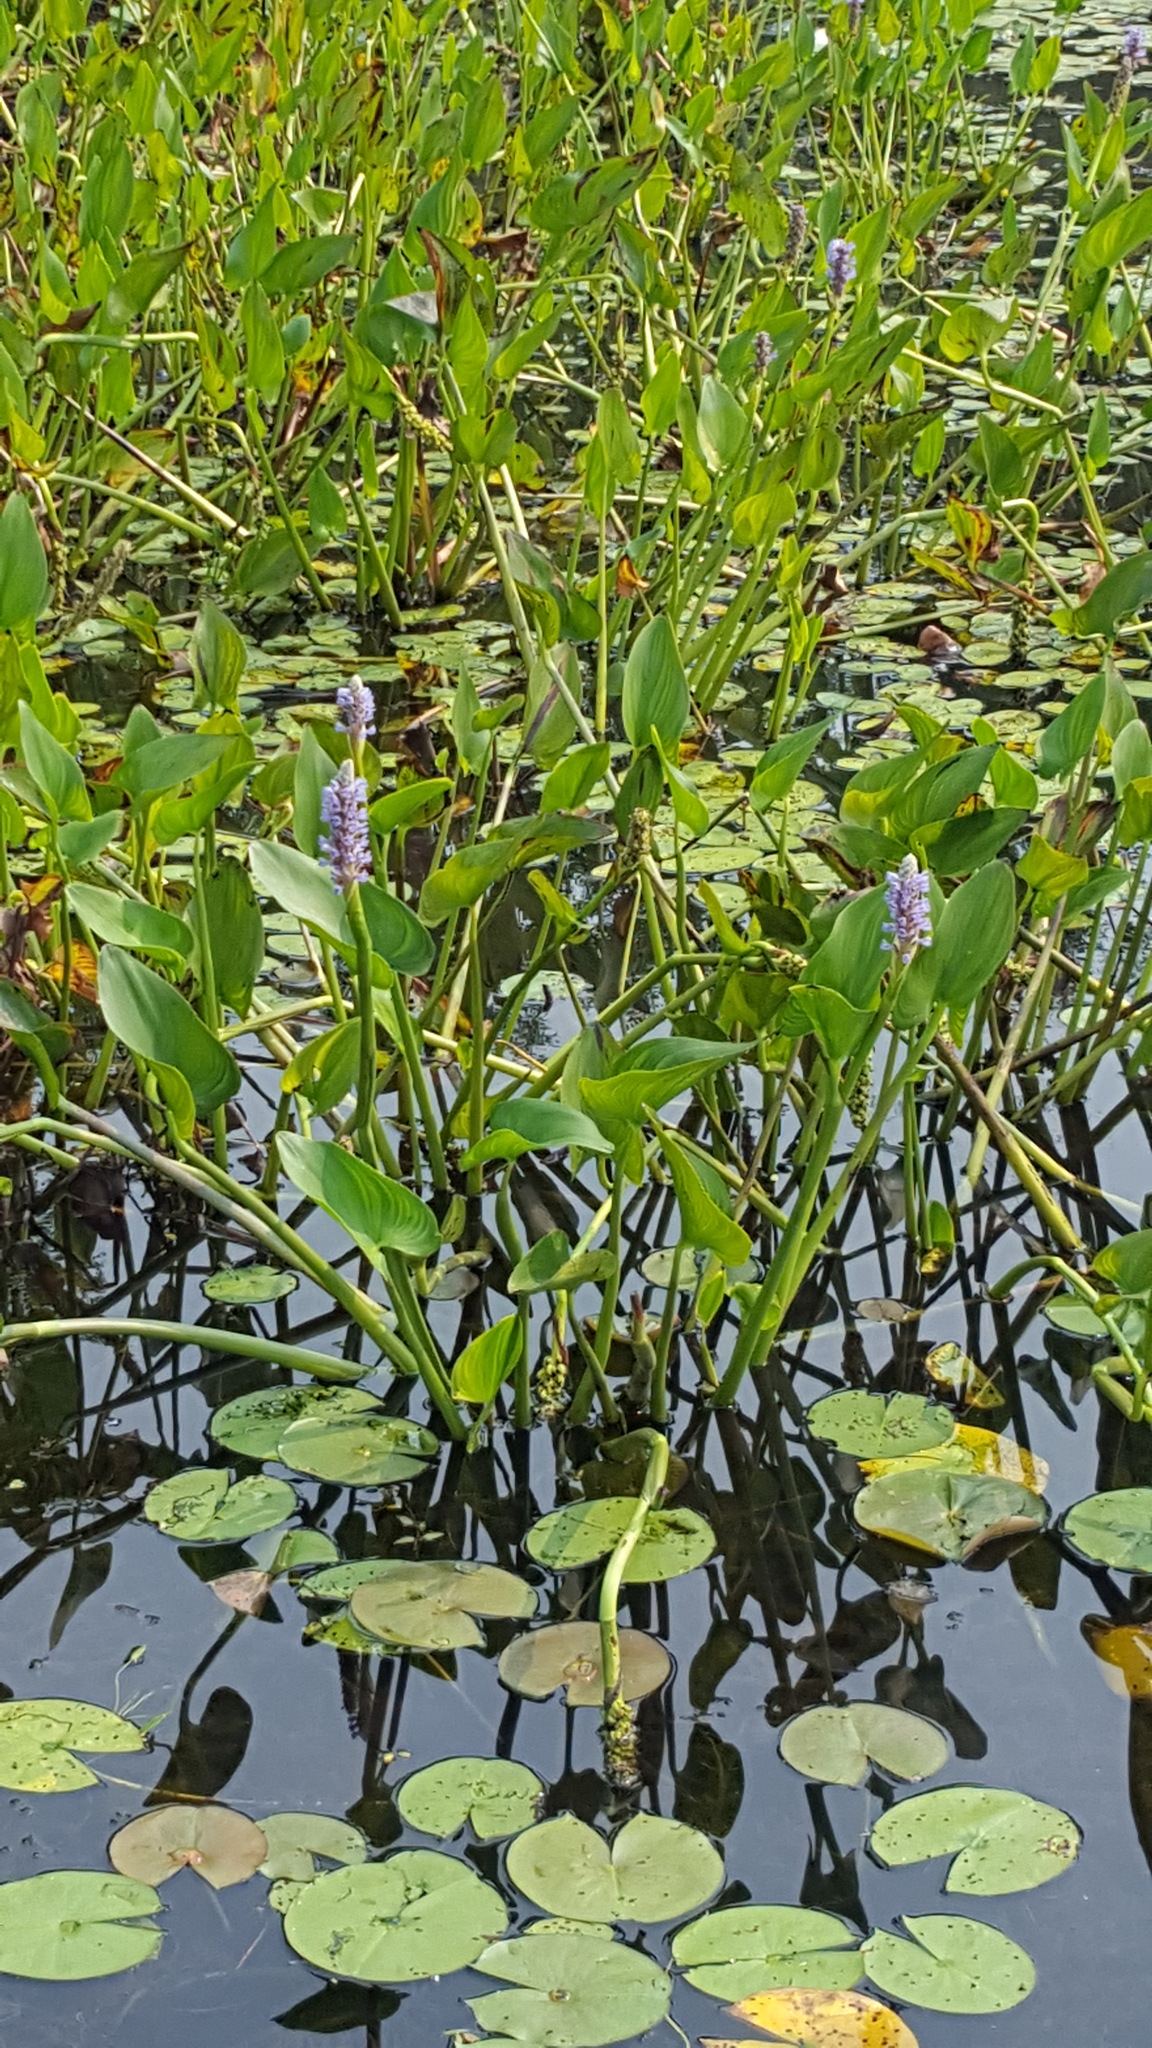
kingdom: Plantae
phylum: Tracheophyta
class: Liliopsida
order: Commelinales
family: Pontederiaceae
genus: Pontederia
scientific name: Pontederia cordata
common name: Pickerelweed
